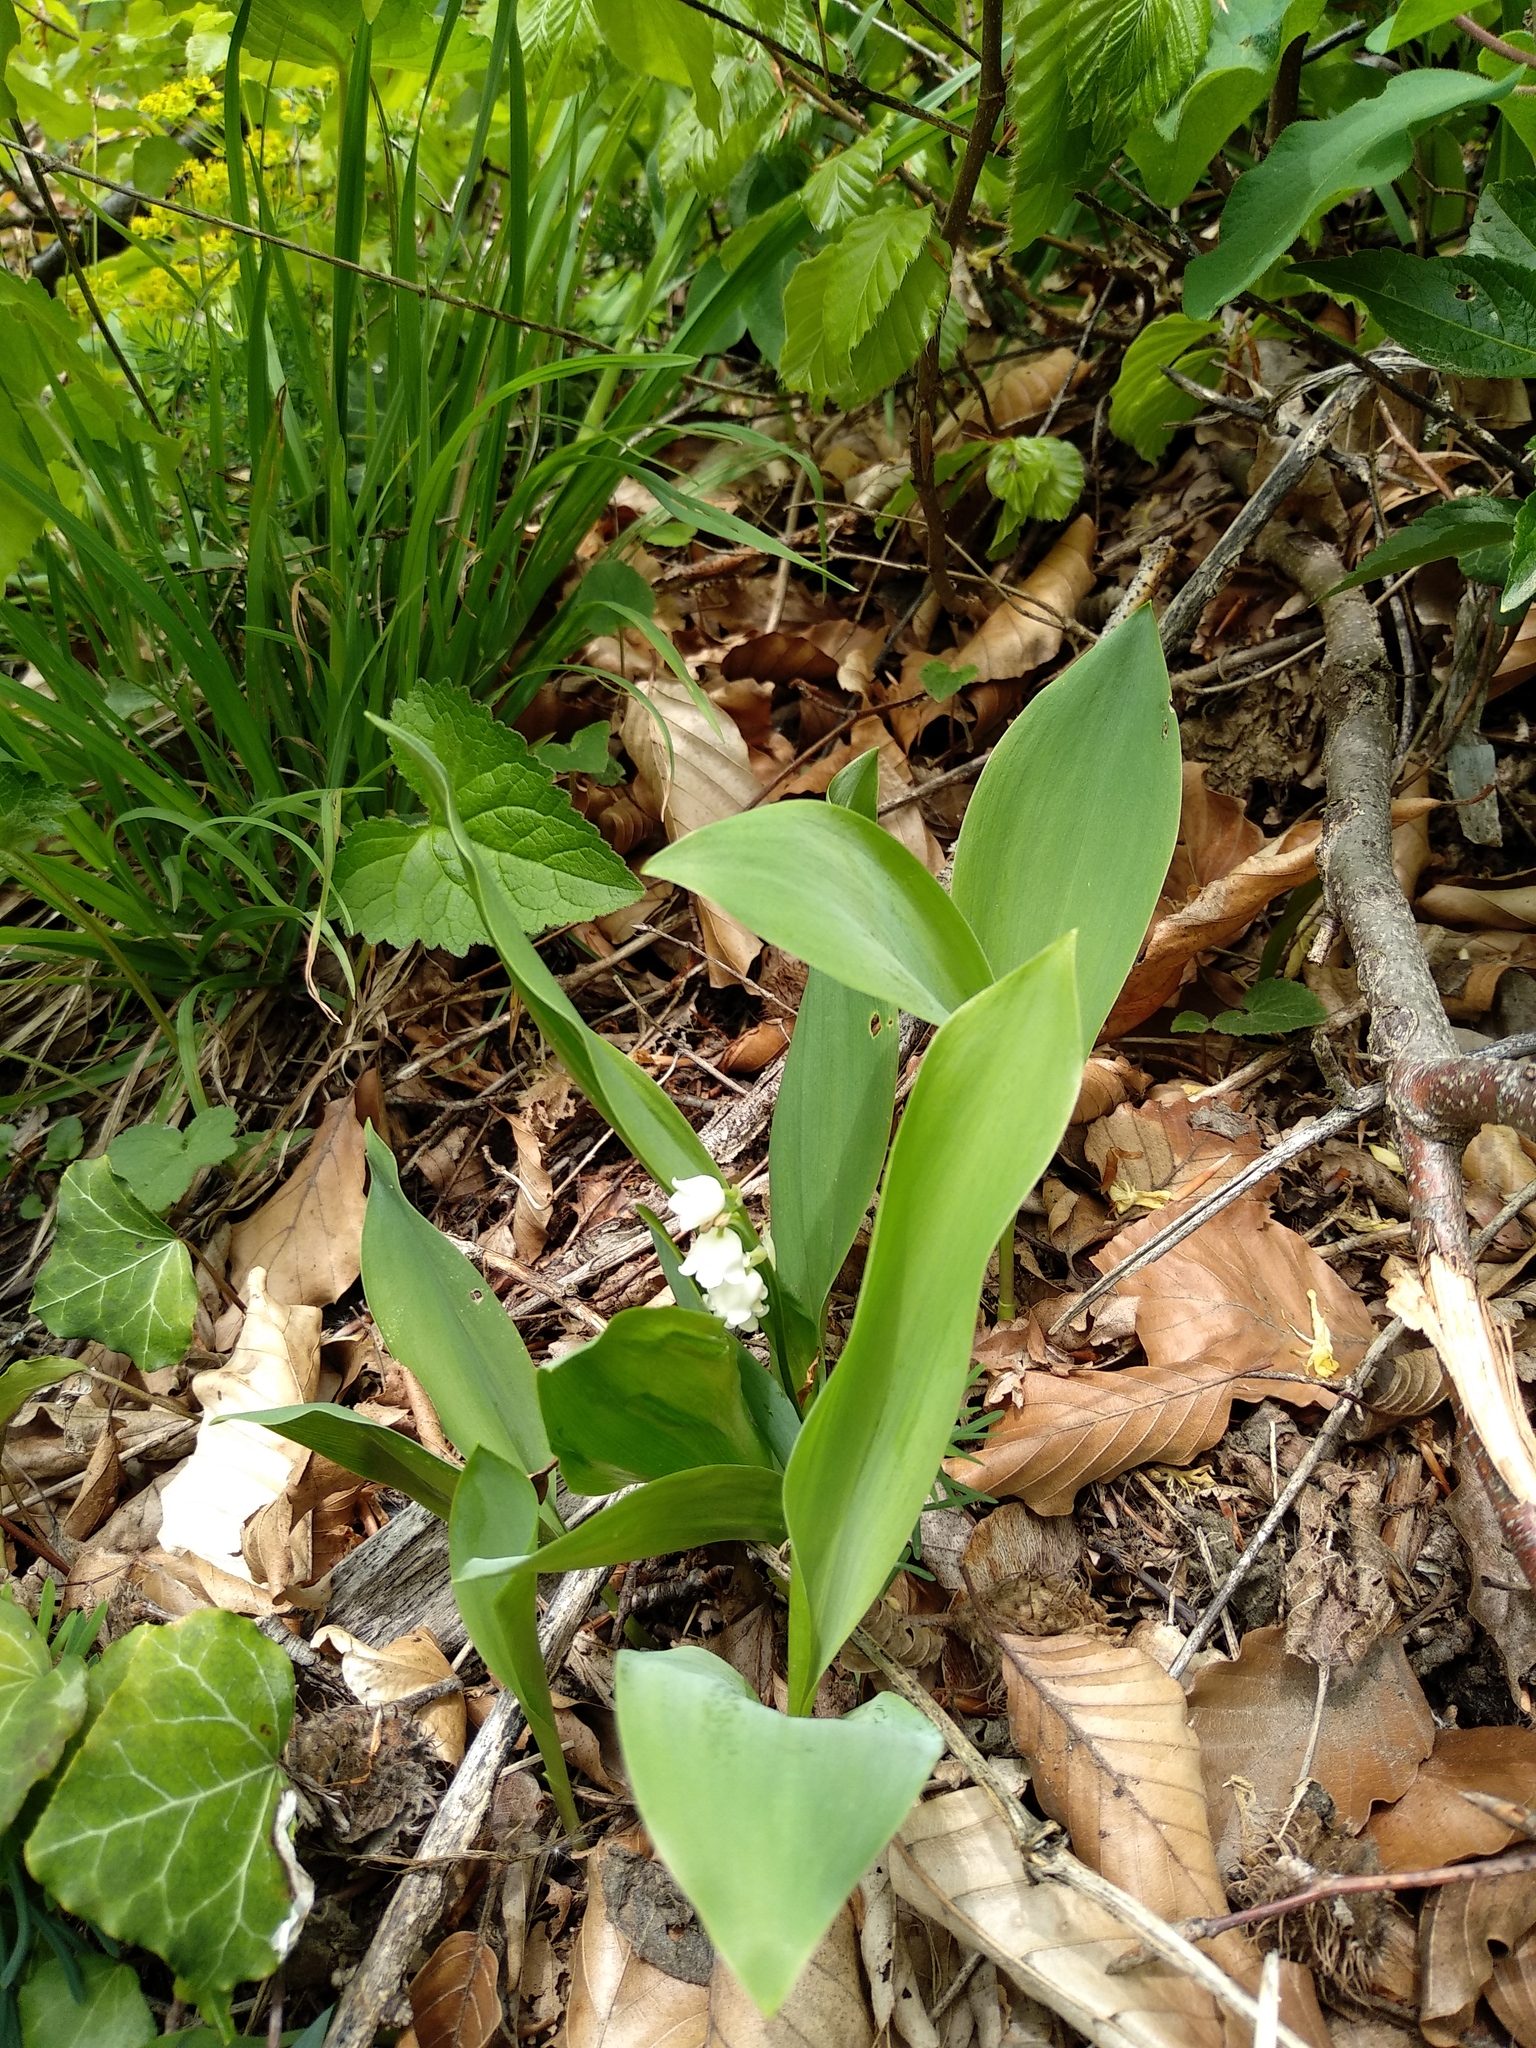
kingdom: Plantae
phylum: Tracheophyta
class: Liliopsida
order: Asparagales
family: Asparagaceae
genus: Convallaria
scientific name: Convallaria majalis
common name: Lily-of-the-valley
